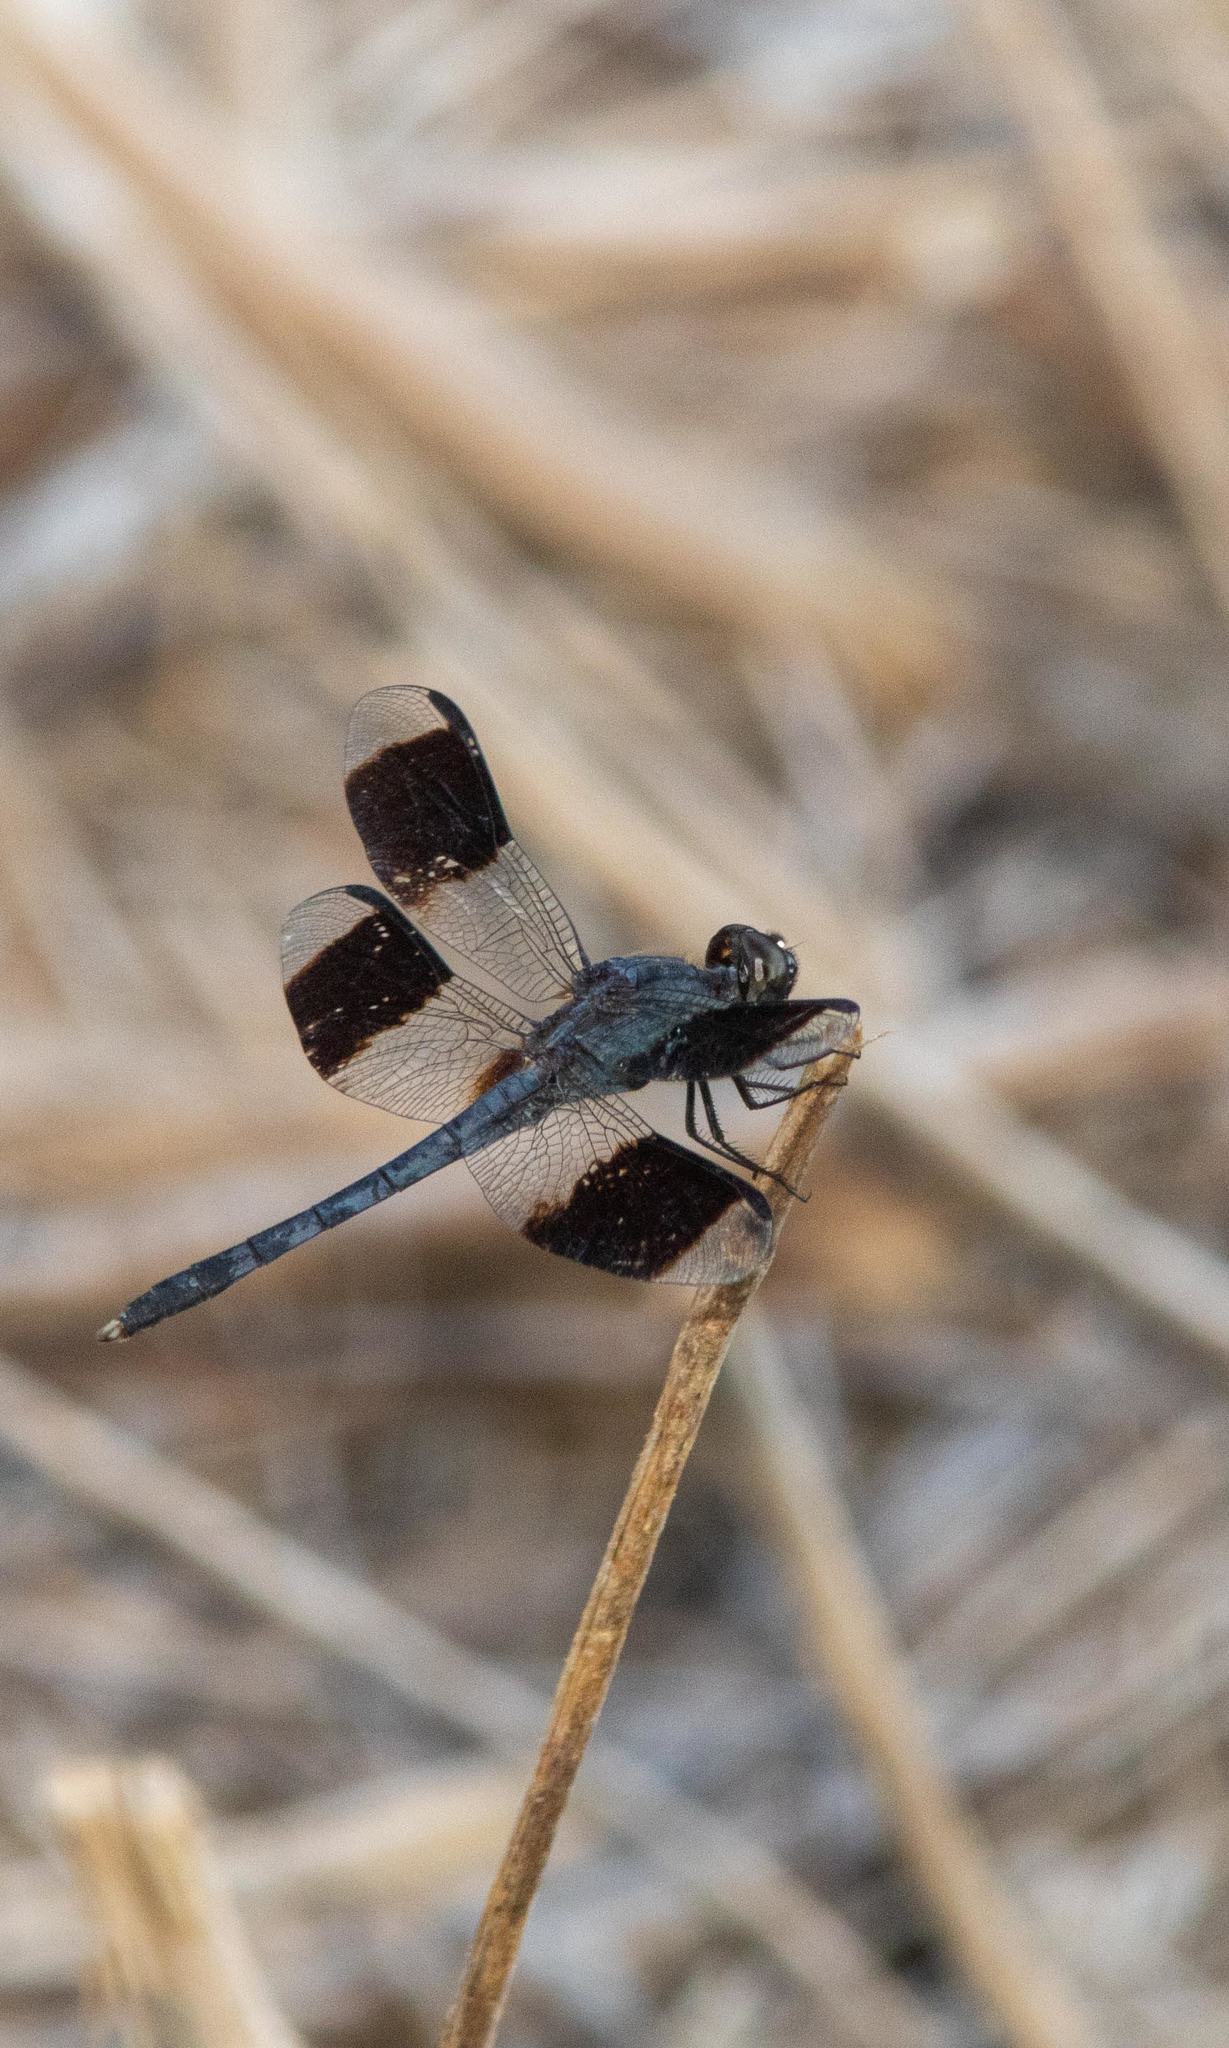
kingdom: Animalia
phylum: Arthropoda
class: Insecta
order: Odonata
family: Libellulidae
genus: Erythrodiplax
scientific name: Erythrodiplax umbrata
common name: Band-winged dragonlet
